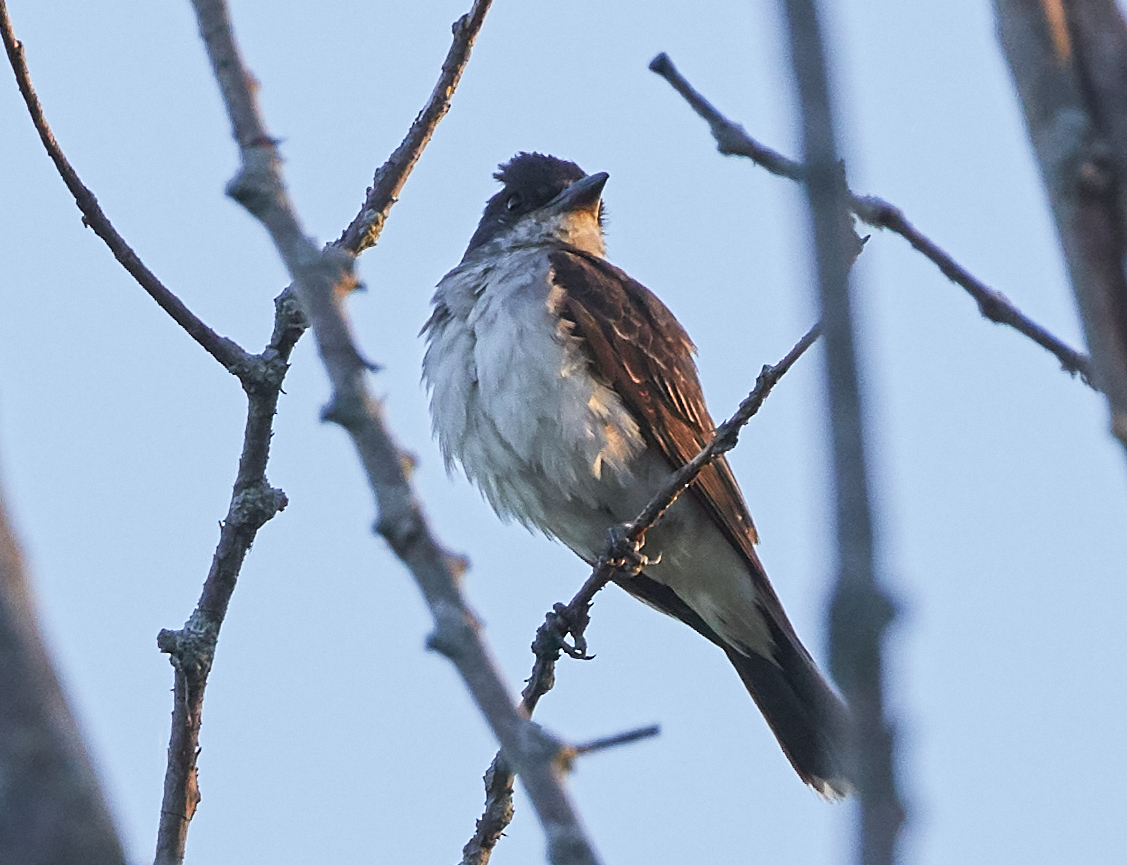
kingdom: Animalia
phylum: Chordata
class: Aves
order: Passeriformes
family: Tyrannidae
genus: Tyrannus
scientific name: Tyrannus tyrannus
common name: Eastern kingbird
